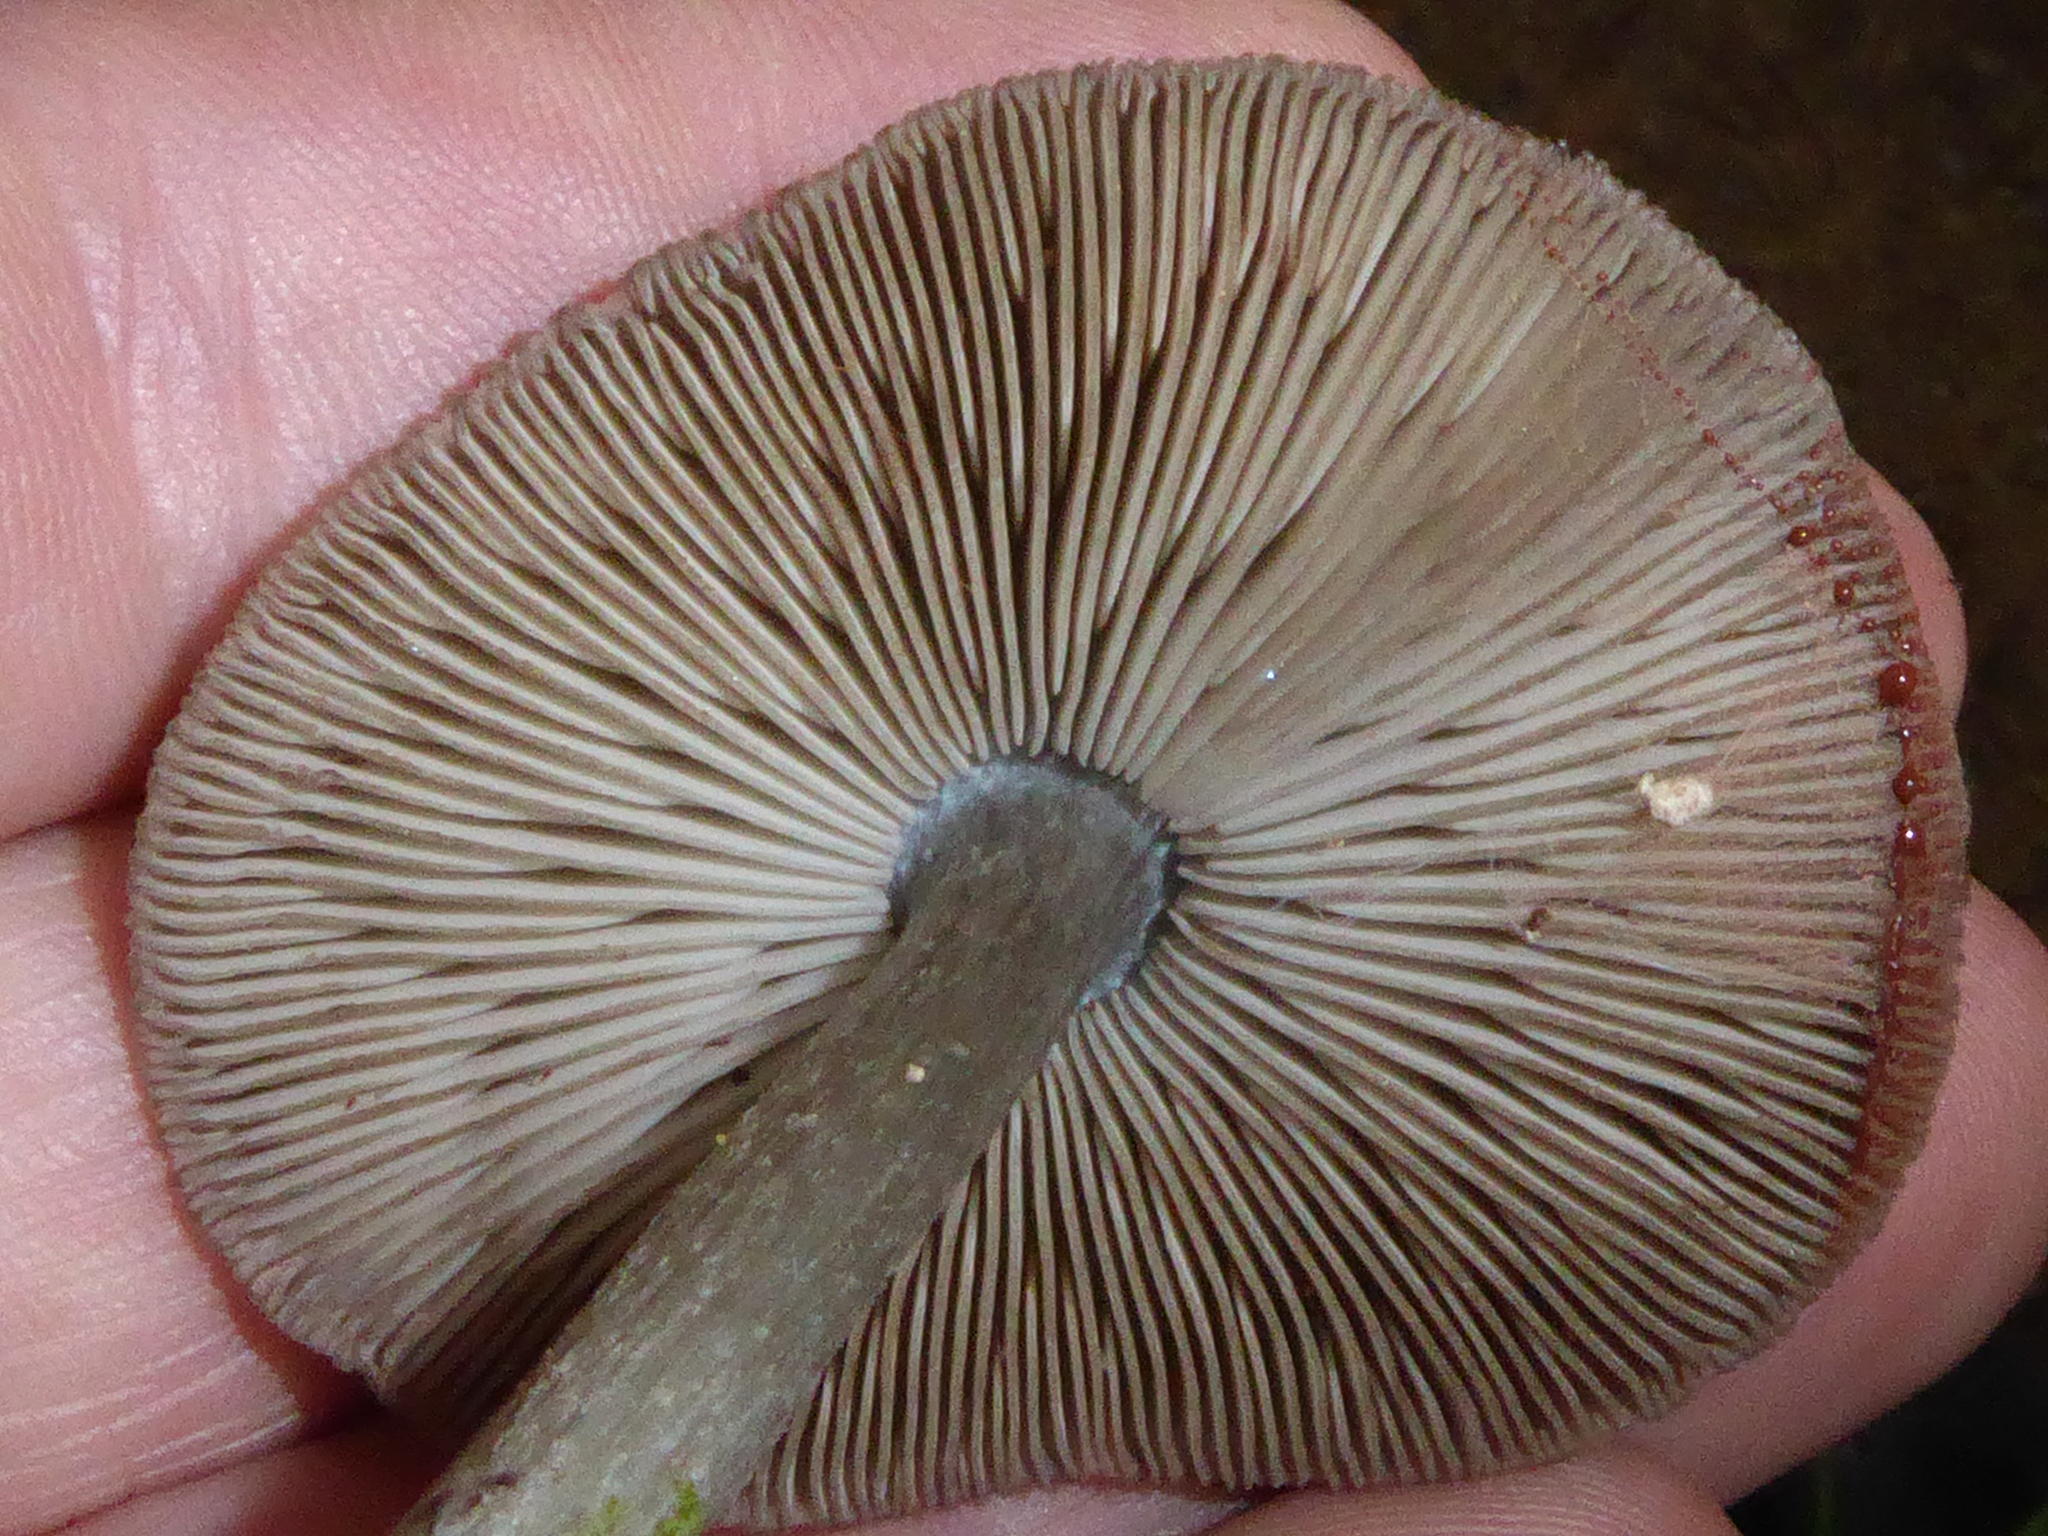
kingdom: Fungi
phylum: Basidiomycota
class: Agaricomycetes
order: Agaricales
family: Pluteaceae
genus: Pluteus
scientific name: Pluteus velutinornatus
